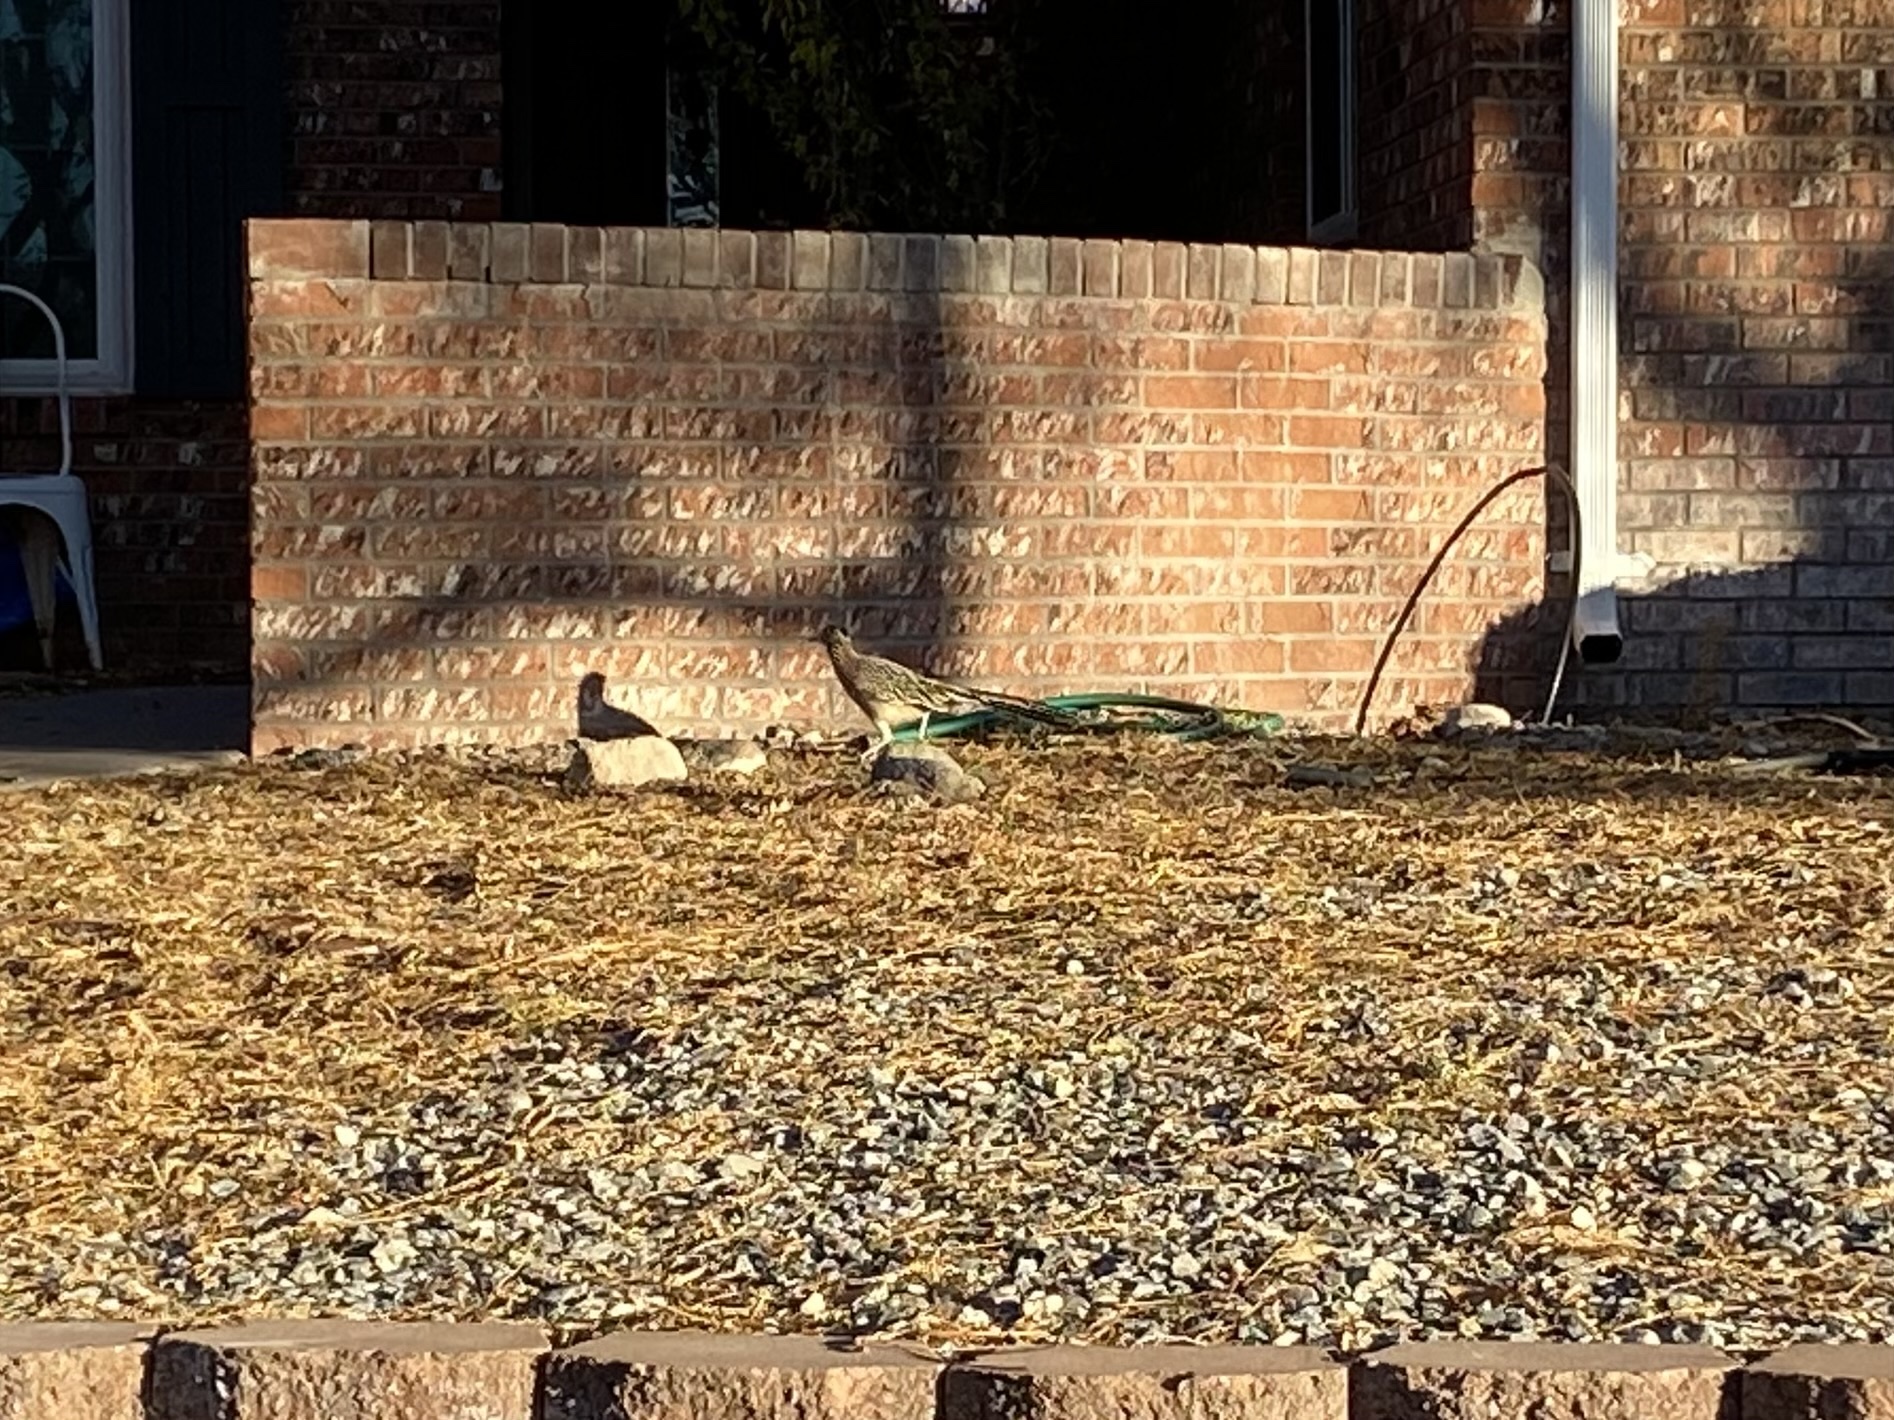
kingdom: Animalia
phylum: Chordata
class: Aves
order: Cuculiformes
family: Cuculidae
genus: Geococcyx
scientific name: Geococcyx californianus
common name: Greater roadrunner
